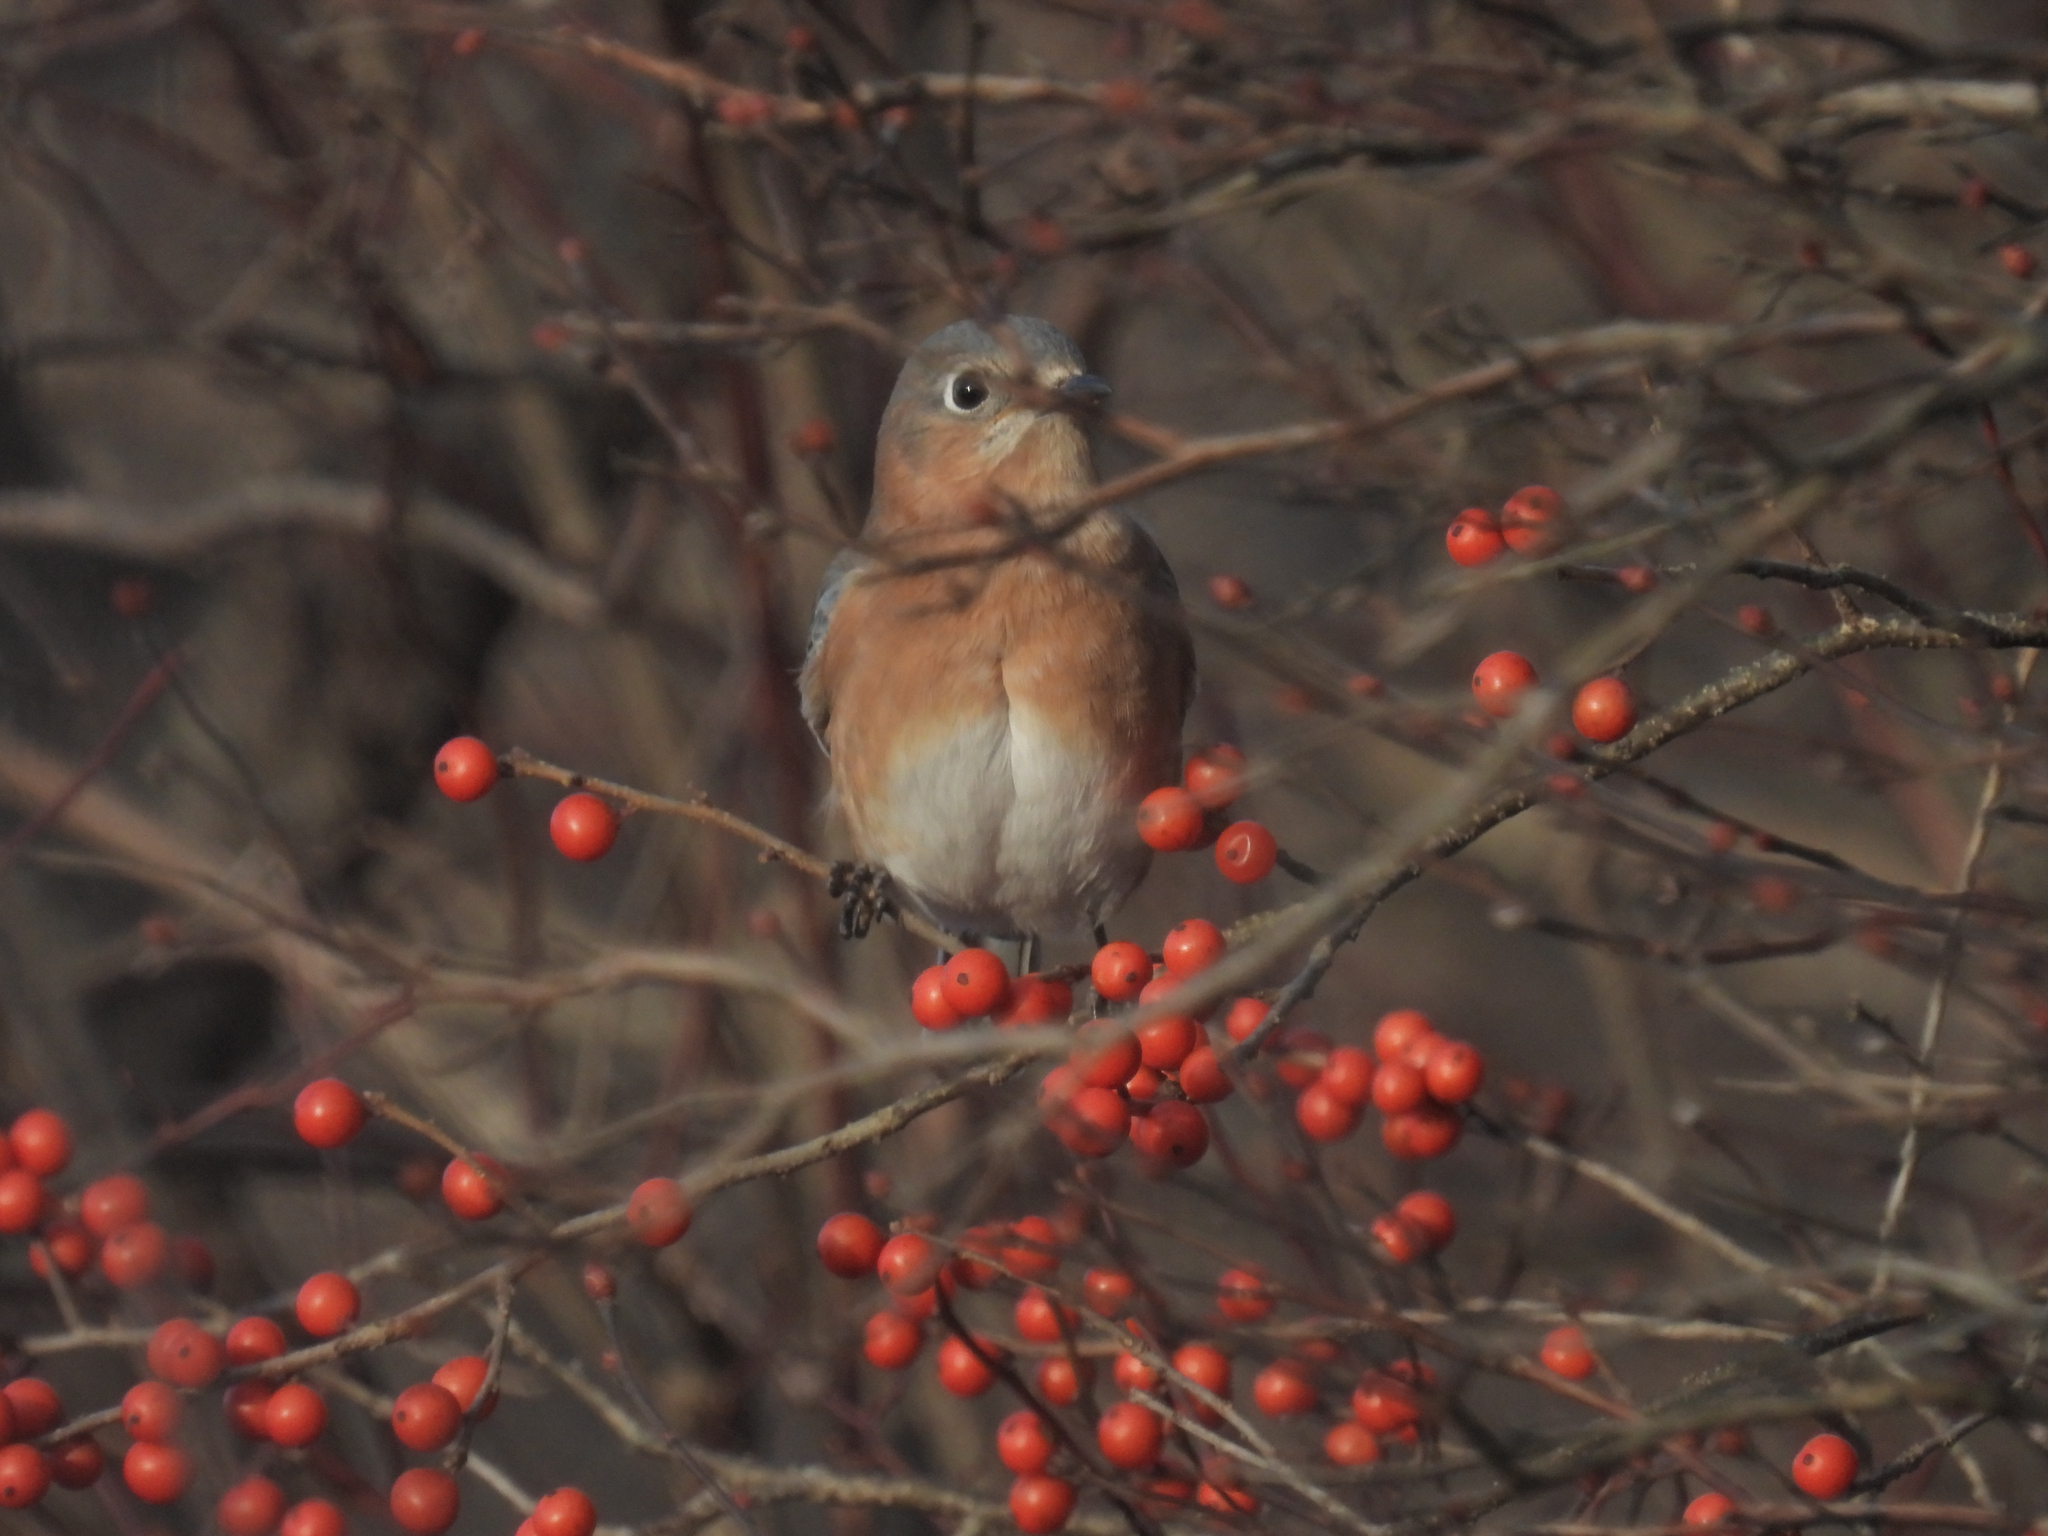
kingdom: Animalia
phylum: Chordata
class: Aves
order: Passeriformes
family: Turdidae
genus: Sialia
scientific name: Sialia sialis
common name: Eastern bluebird
